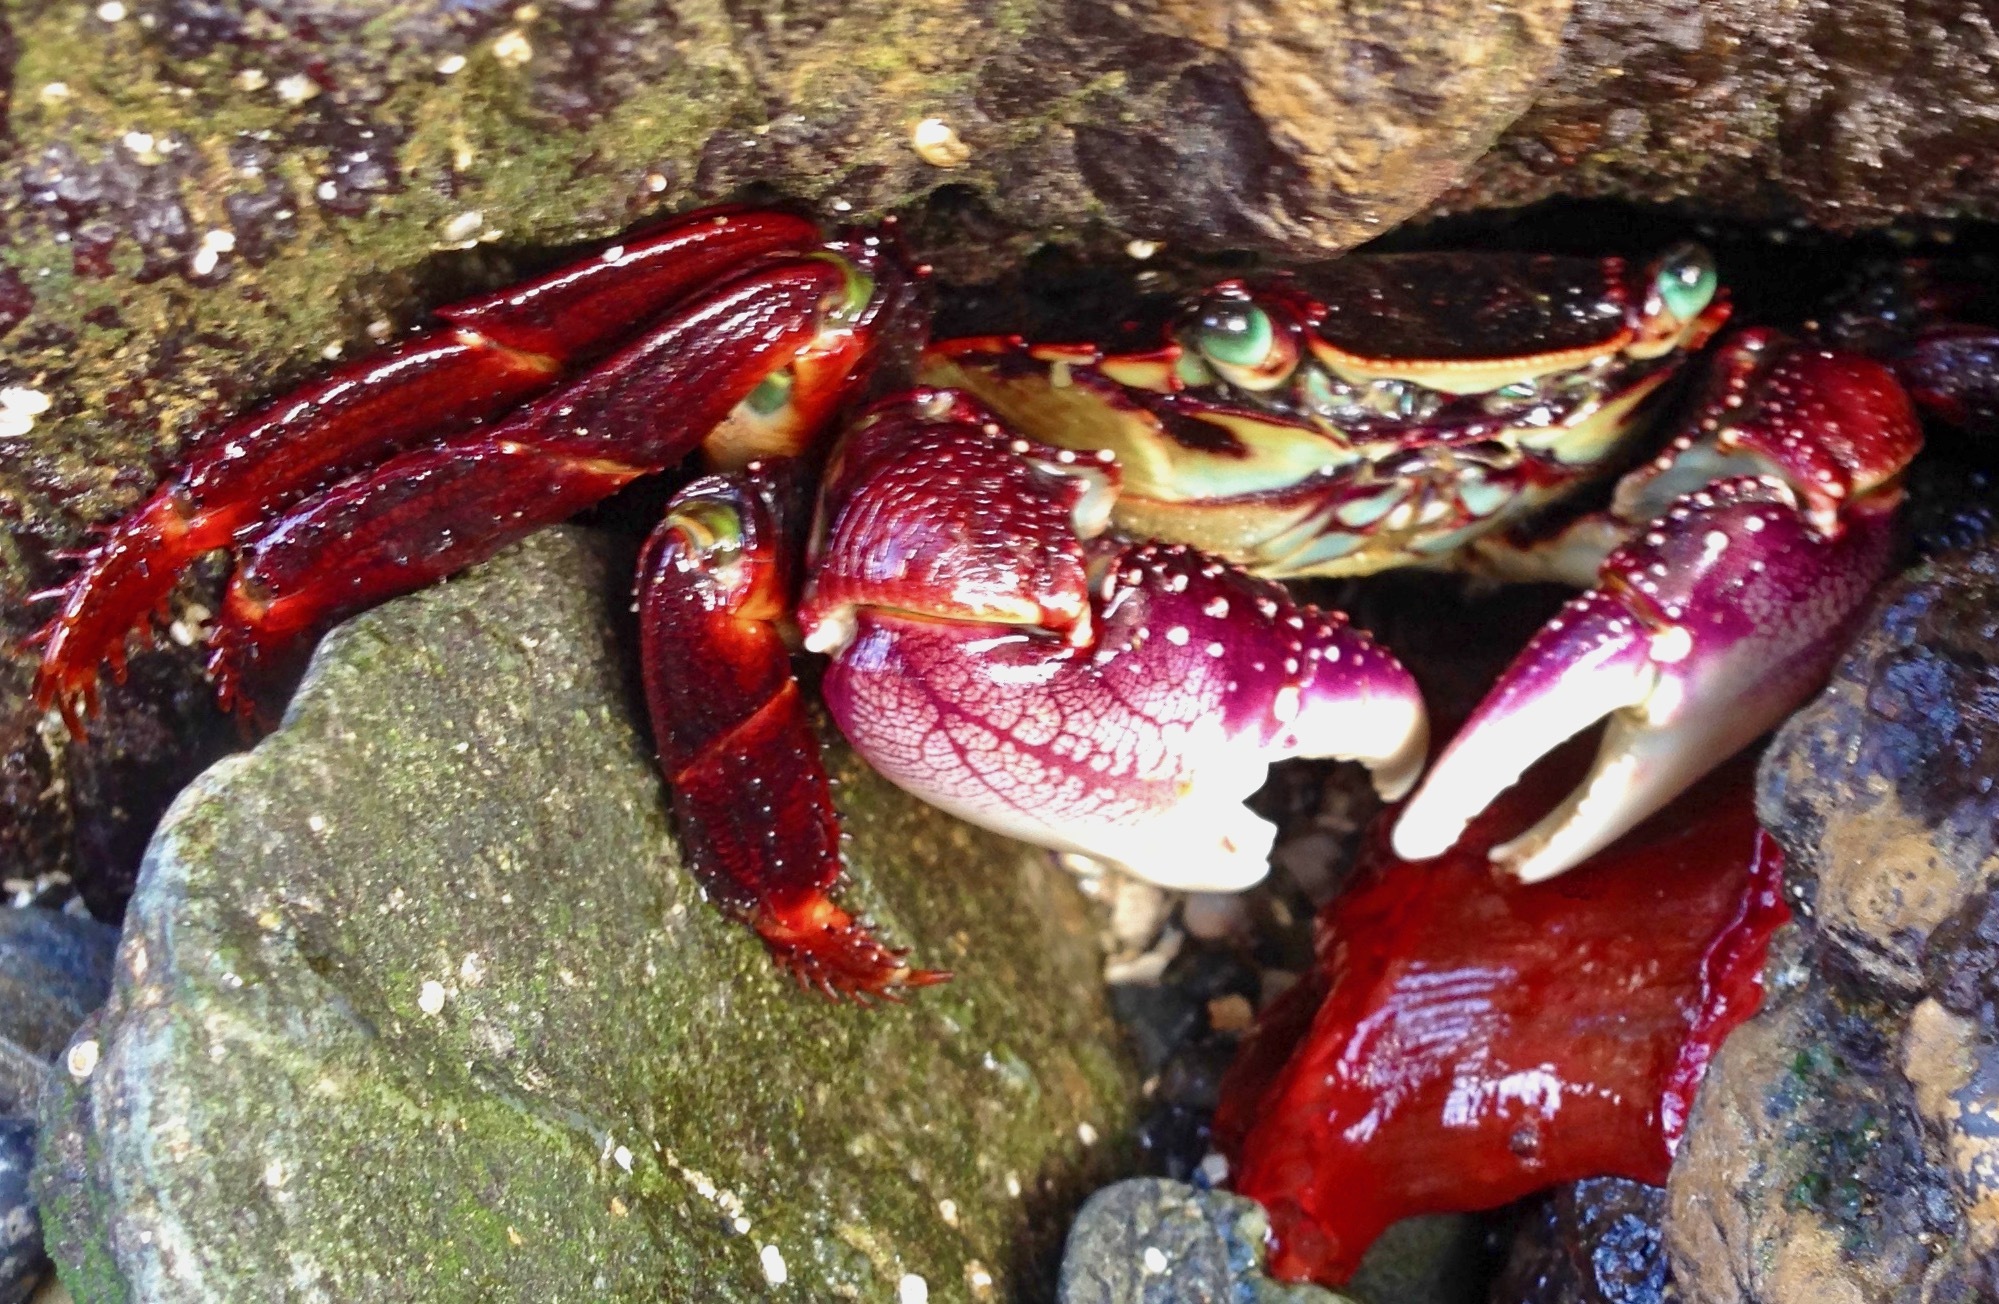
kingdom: Animalia
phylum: Arthropoda
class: Malacostraca
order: Decapoda
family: Grapsidae
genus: Leptograpsus
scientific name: Leptograpsus variegatus
